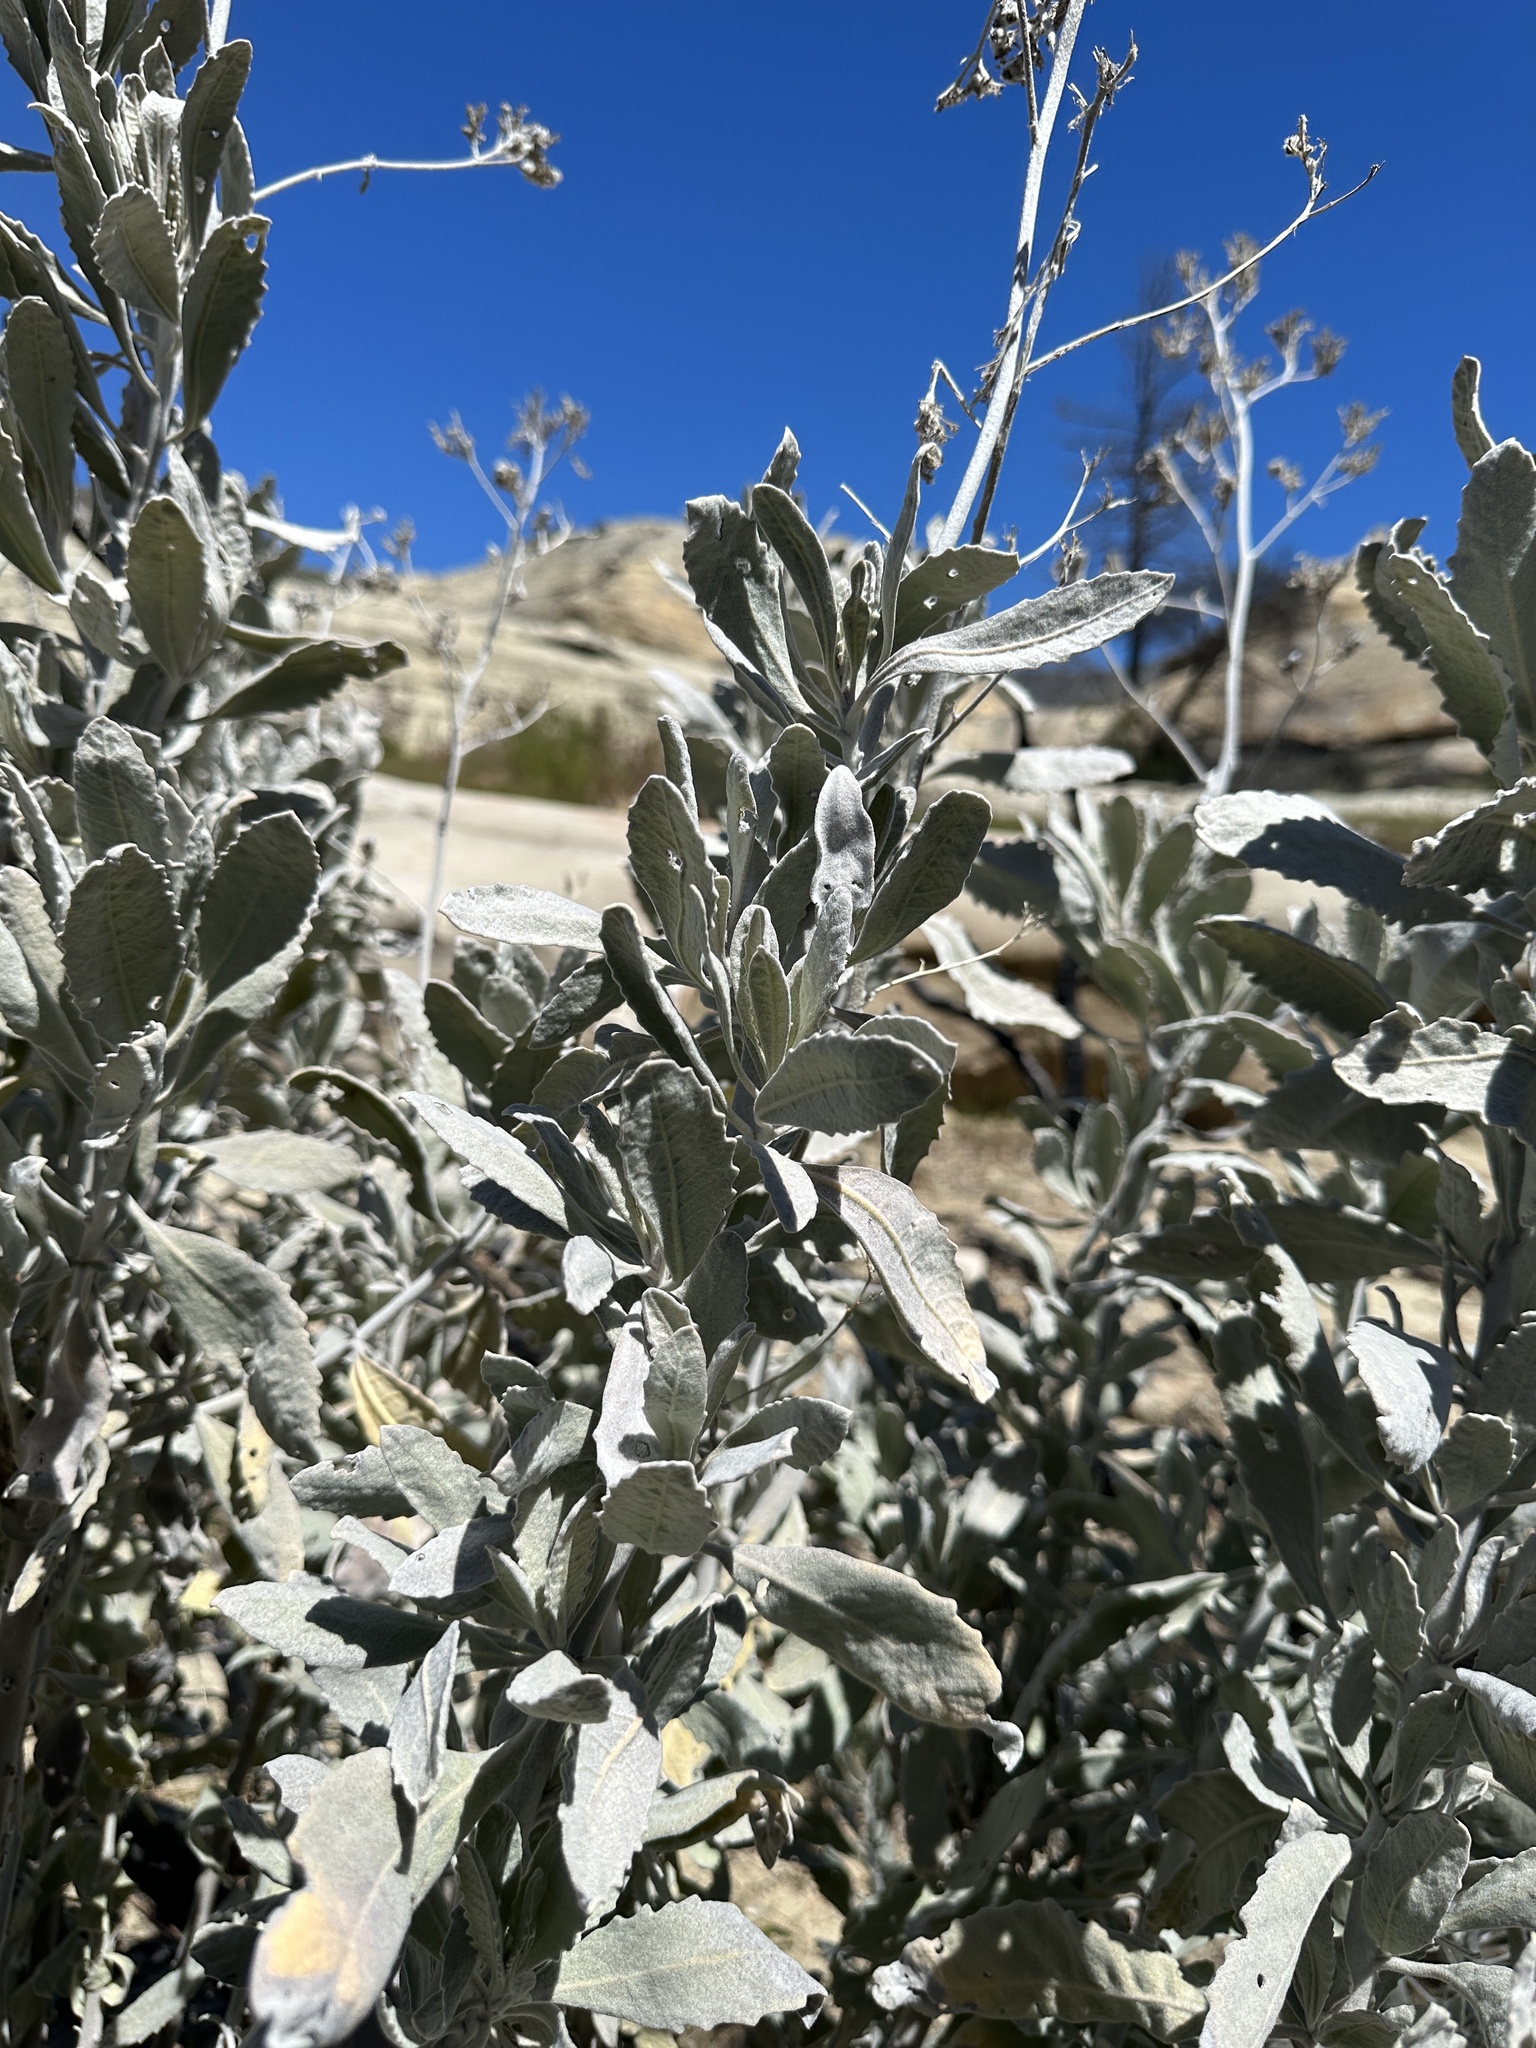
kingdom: Plantae
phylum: Tracheophyta
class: Magnoliopsida
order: Boraginales
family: Namaceae
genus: Eriodictyon
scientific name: Eriodictyon tomentosum
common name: Woolly yerba-santa
